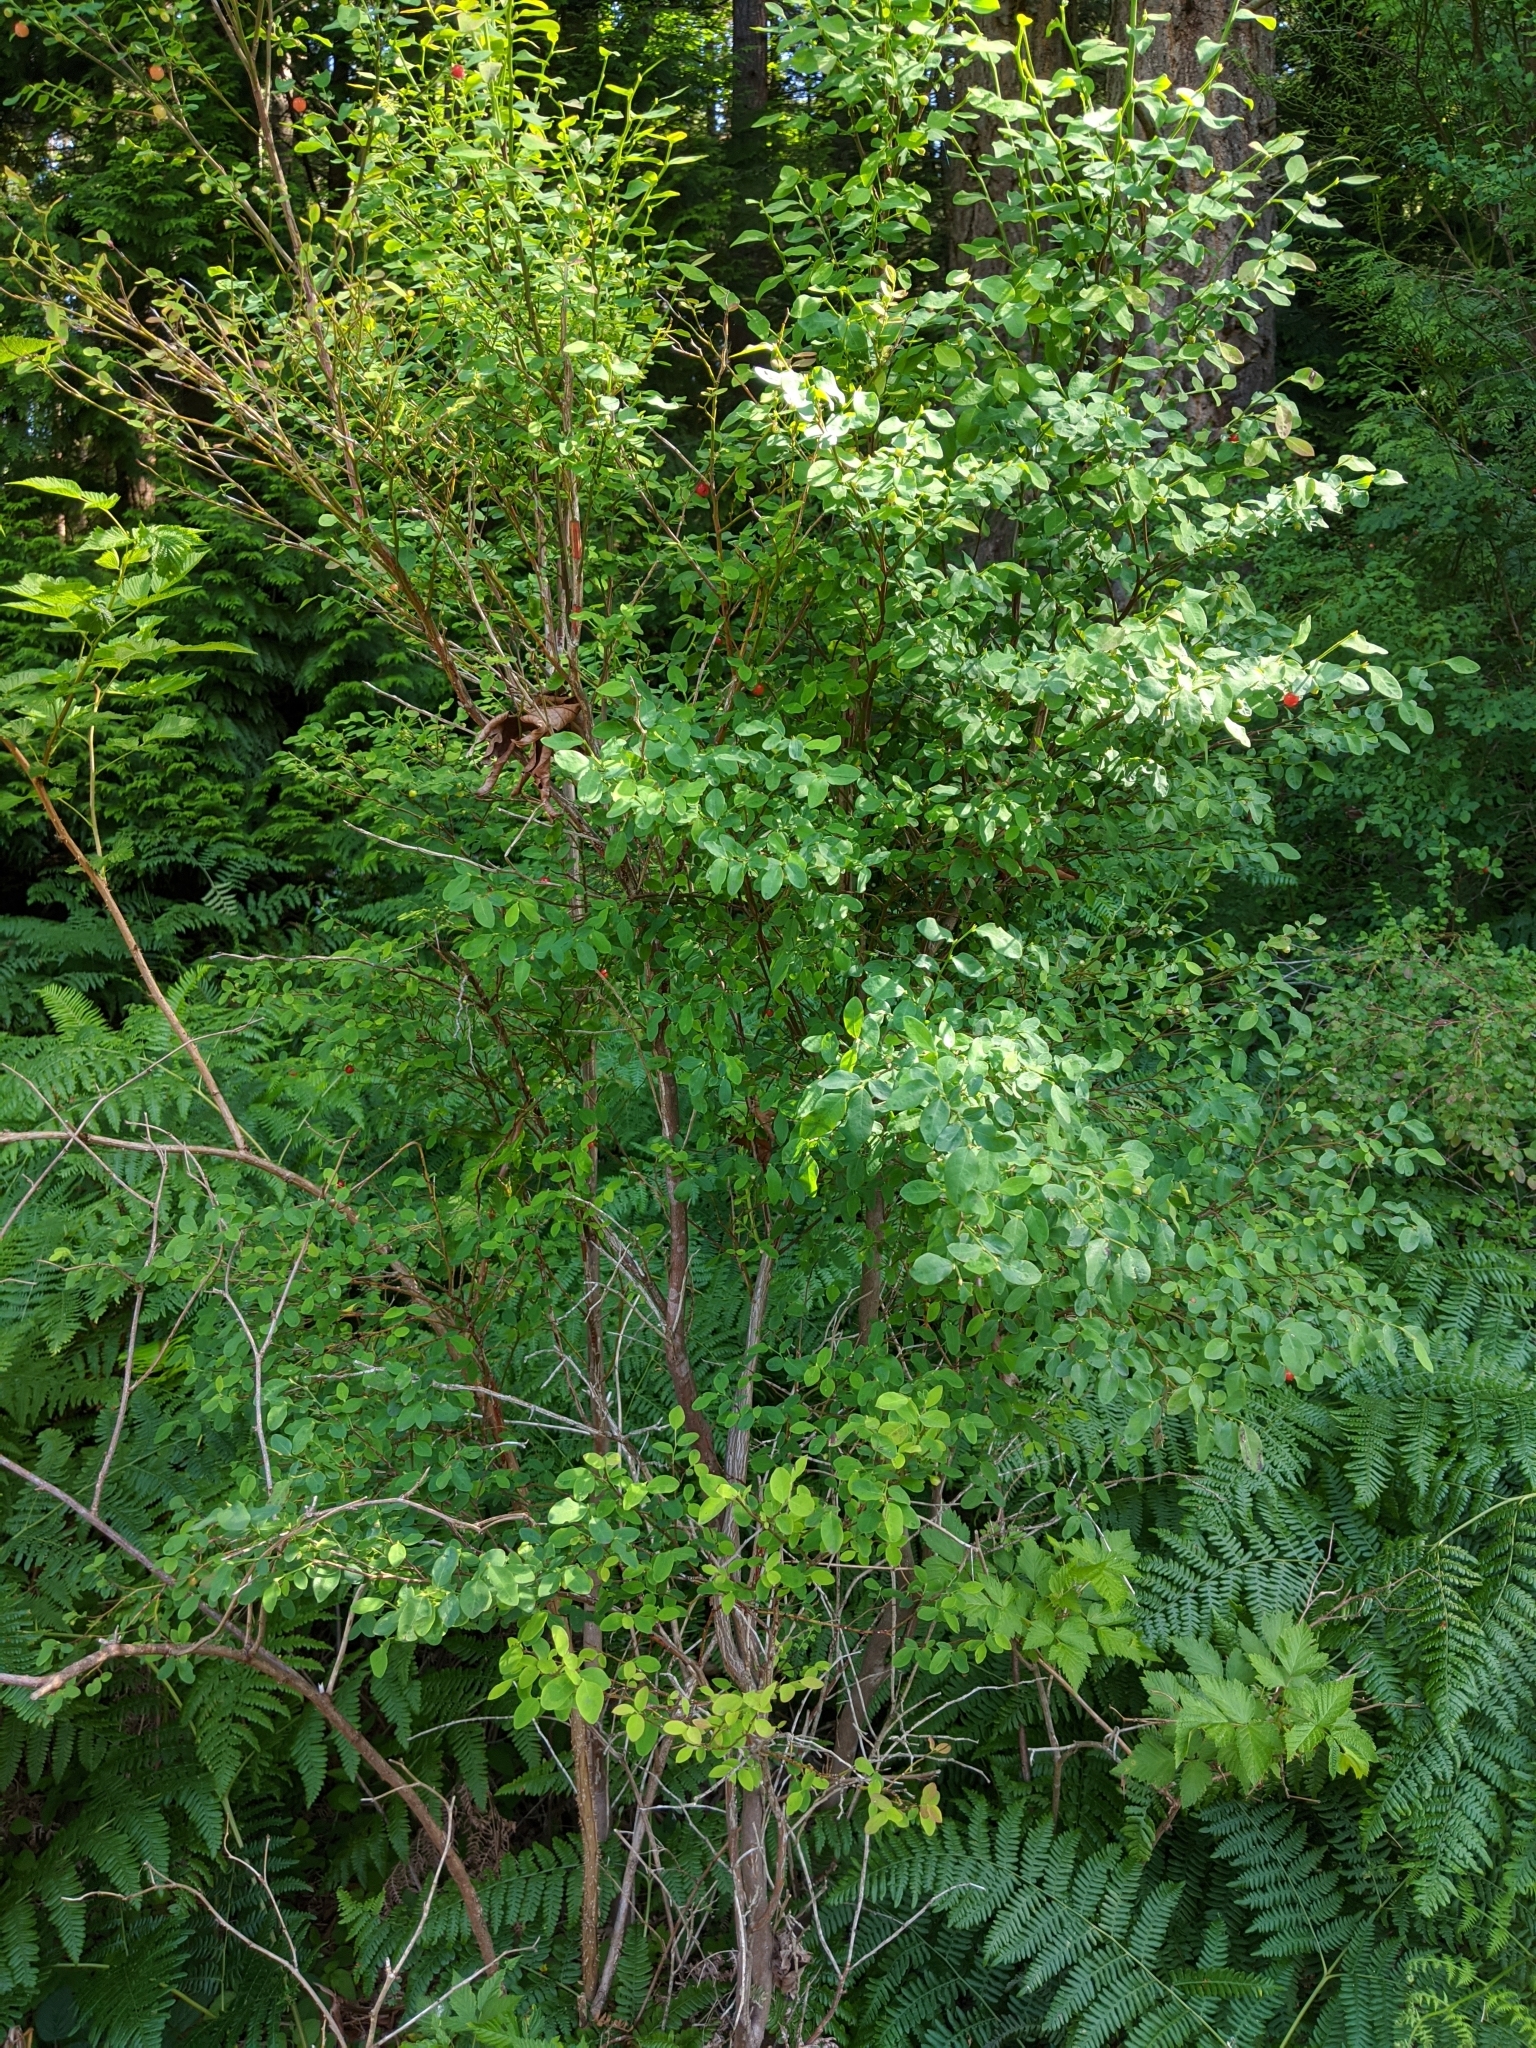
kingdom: Plantae
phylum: Tracheophyta
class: Magnoliopsida
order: Ericales
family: Ericaceae
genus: Vaccinium
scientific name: Vaccinium parvifolium
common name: Red-huckleberry
